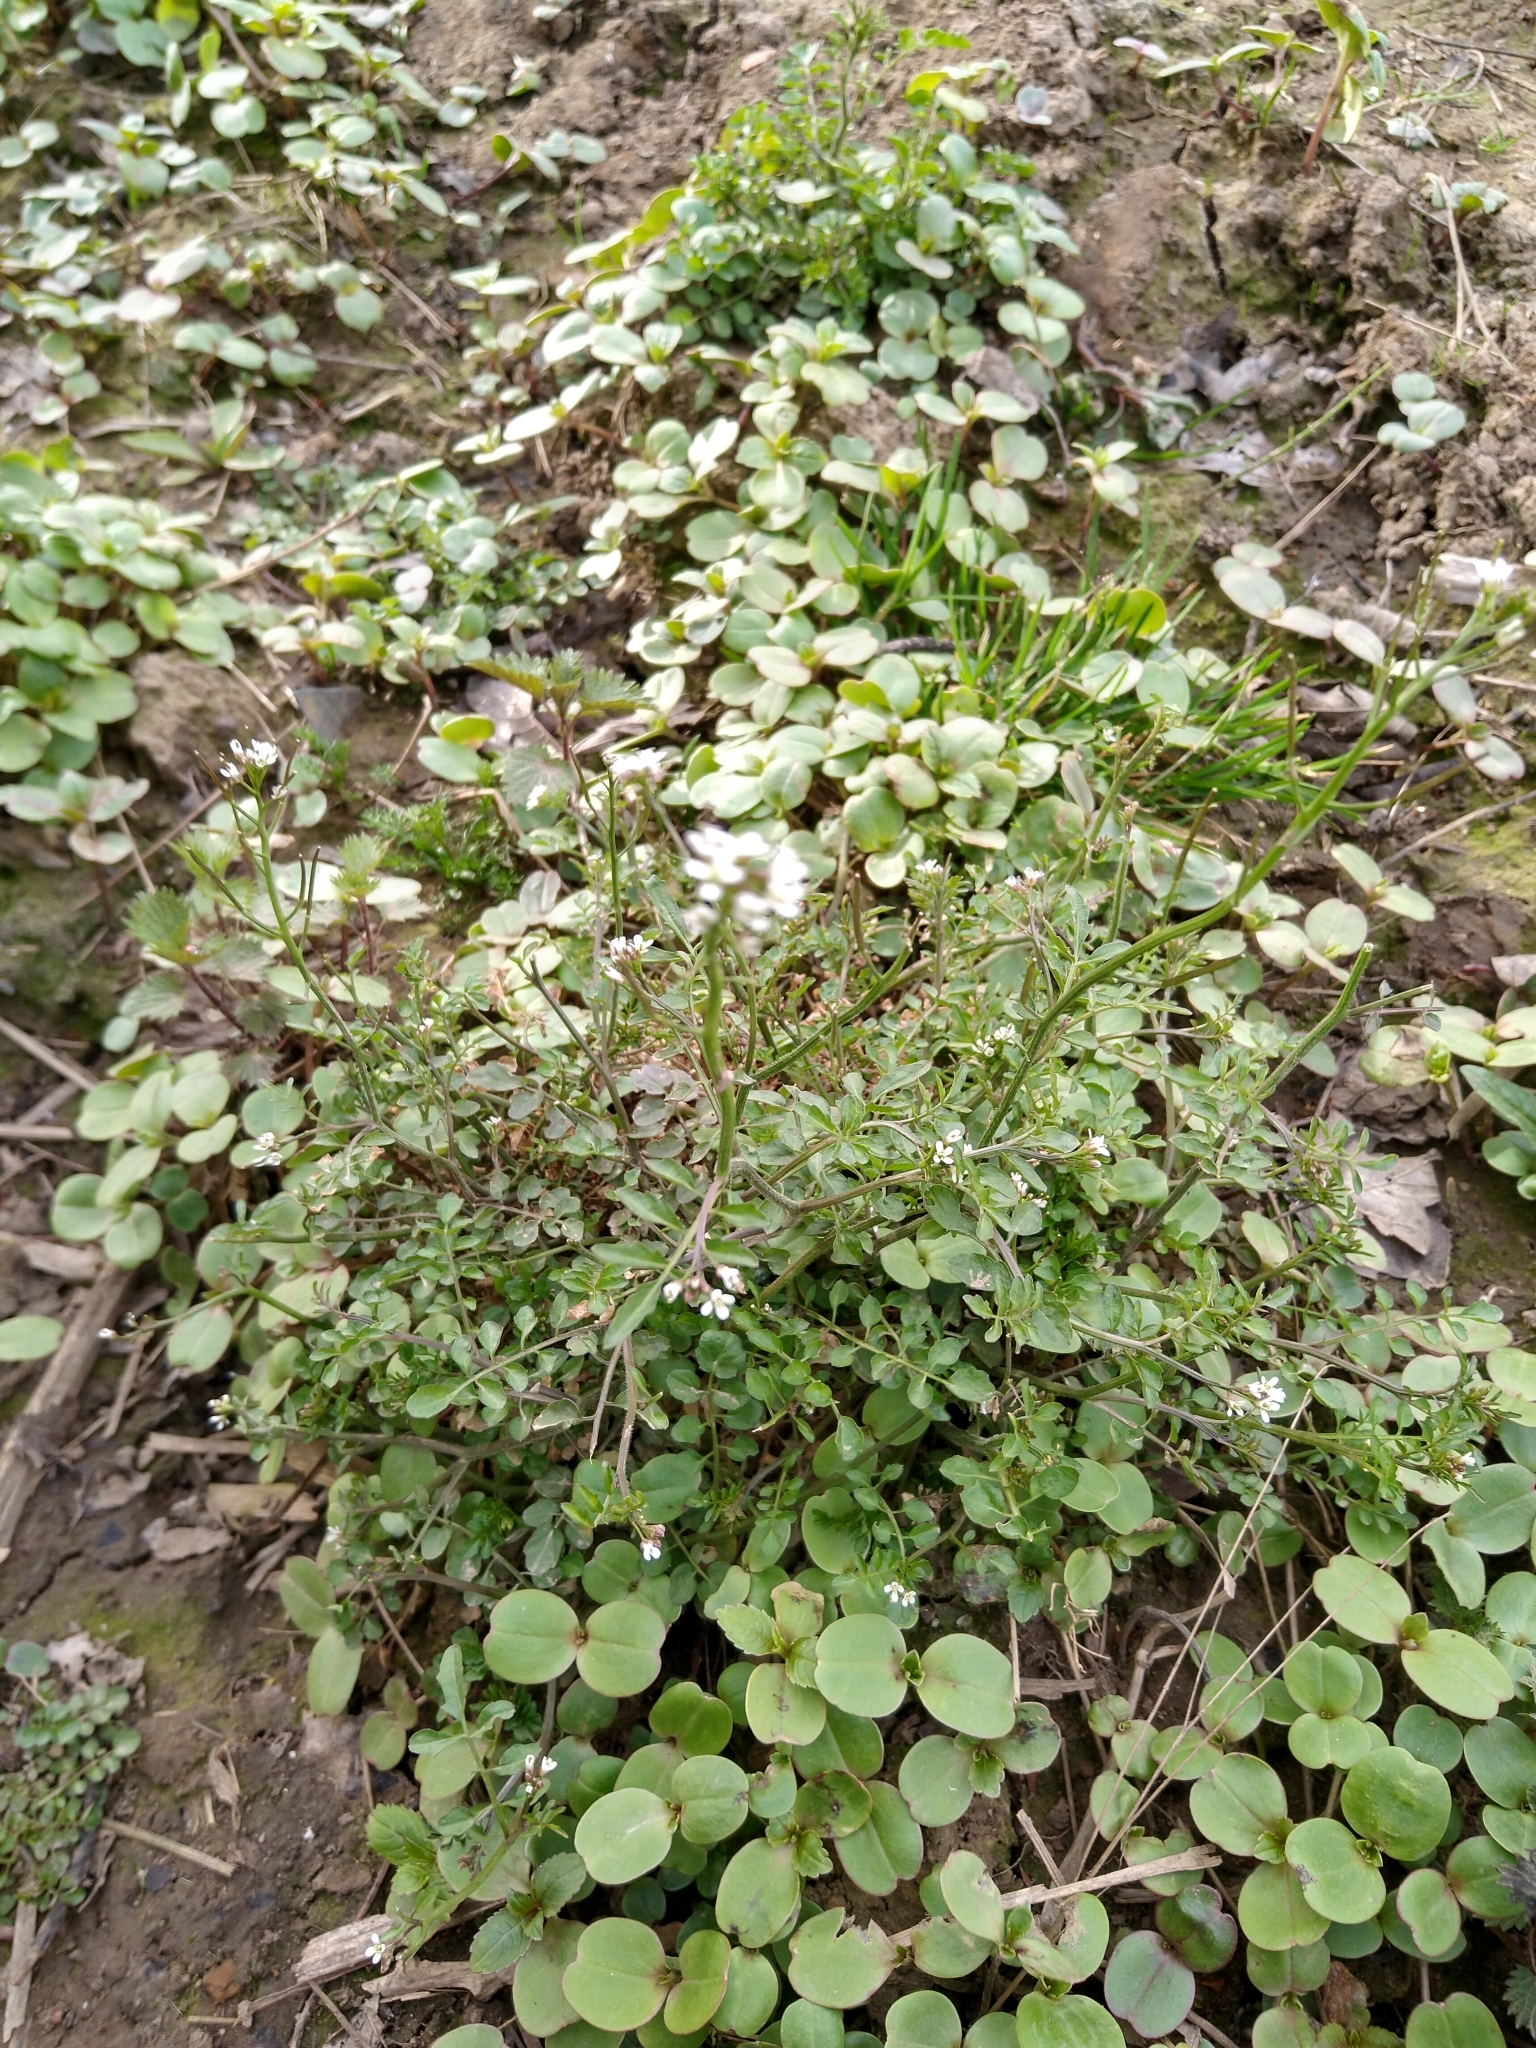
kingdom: Plantae
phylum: Tracheophyta
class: Magnoliopsida
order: Brassicales
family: Brassicaceae
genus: Cardamine
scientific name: Cardamine flexuosa
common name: Woodland bittercress
